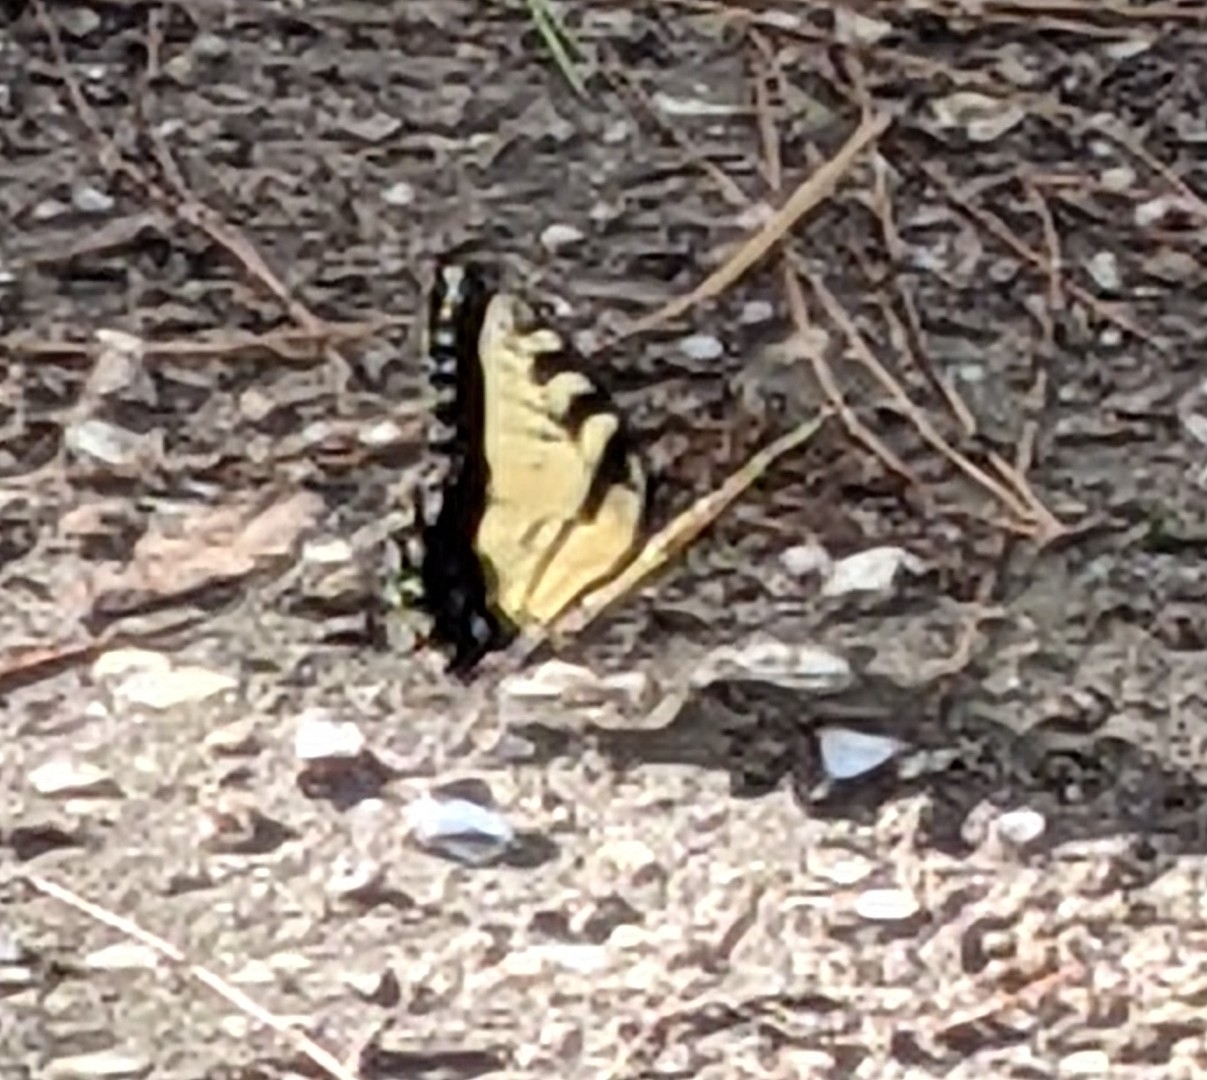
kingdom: Animalia
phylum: Arthropoda
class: Insecta
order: Lepidoptera
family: Papilionidae
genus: Papilio
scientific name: Papilio glaucus
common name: Tiger swallowtail
